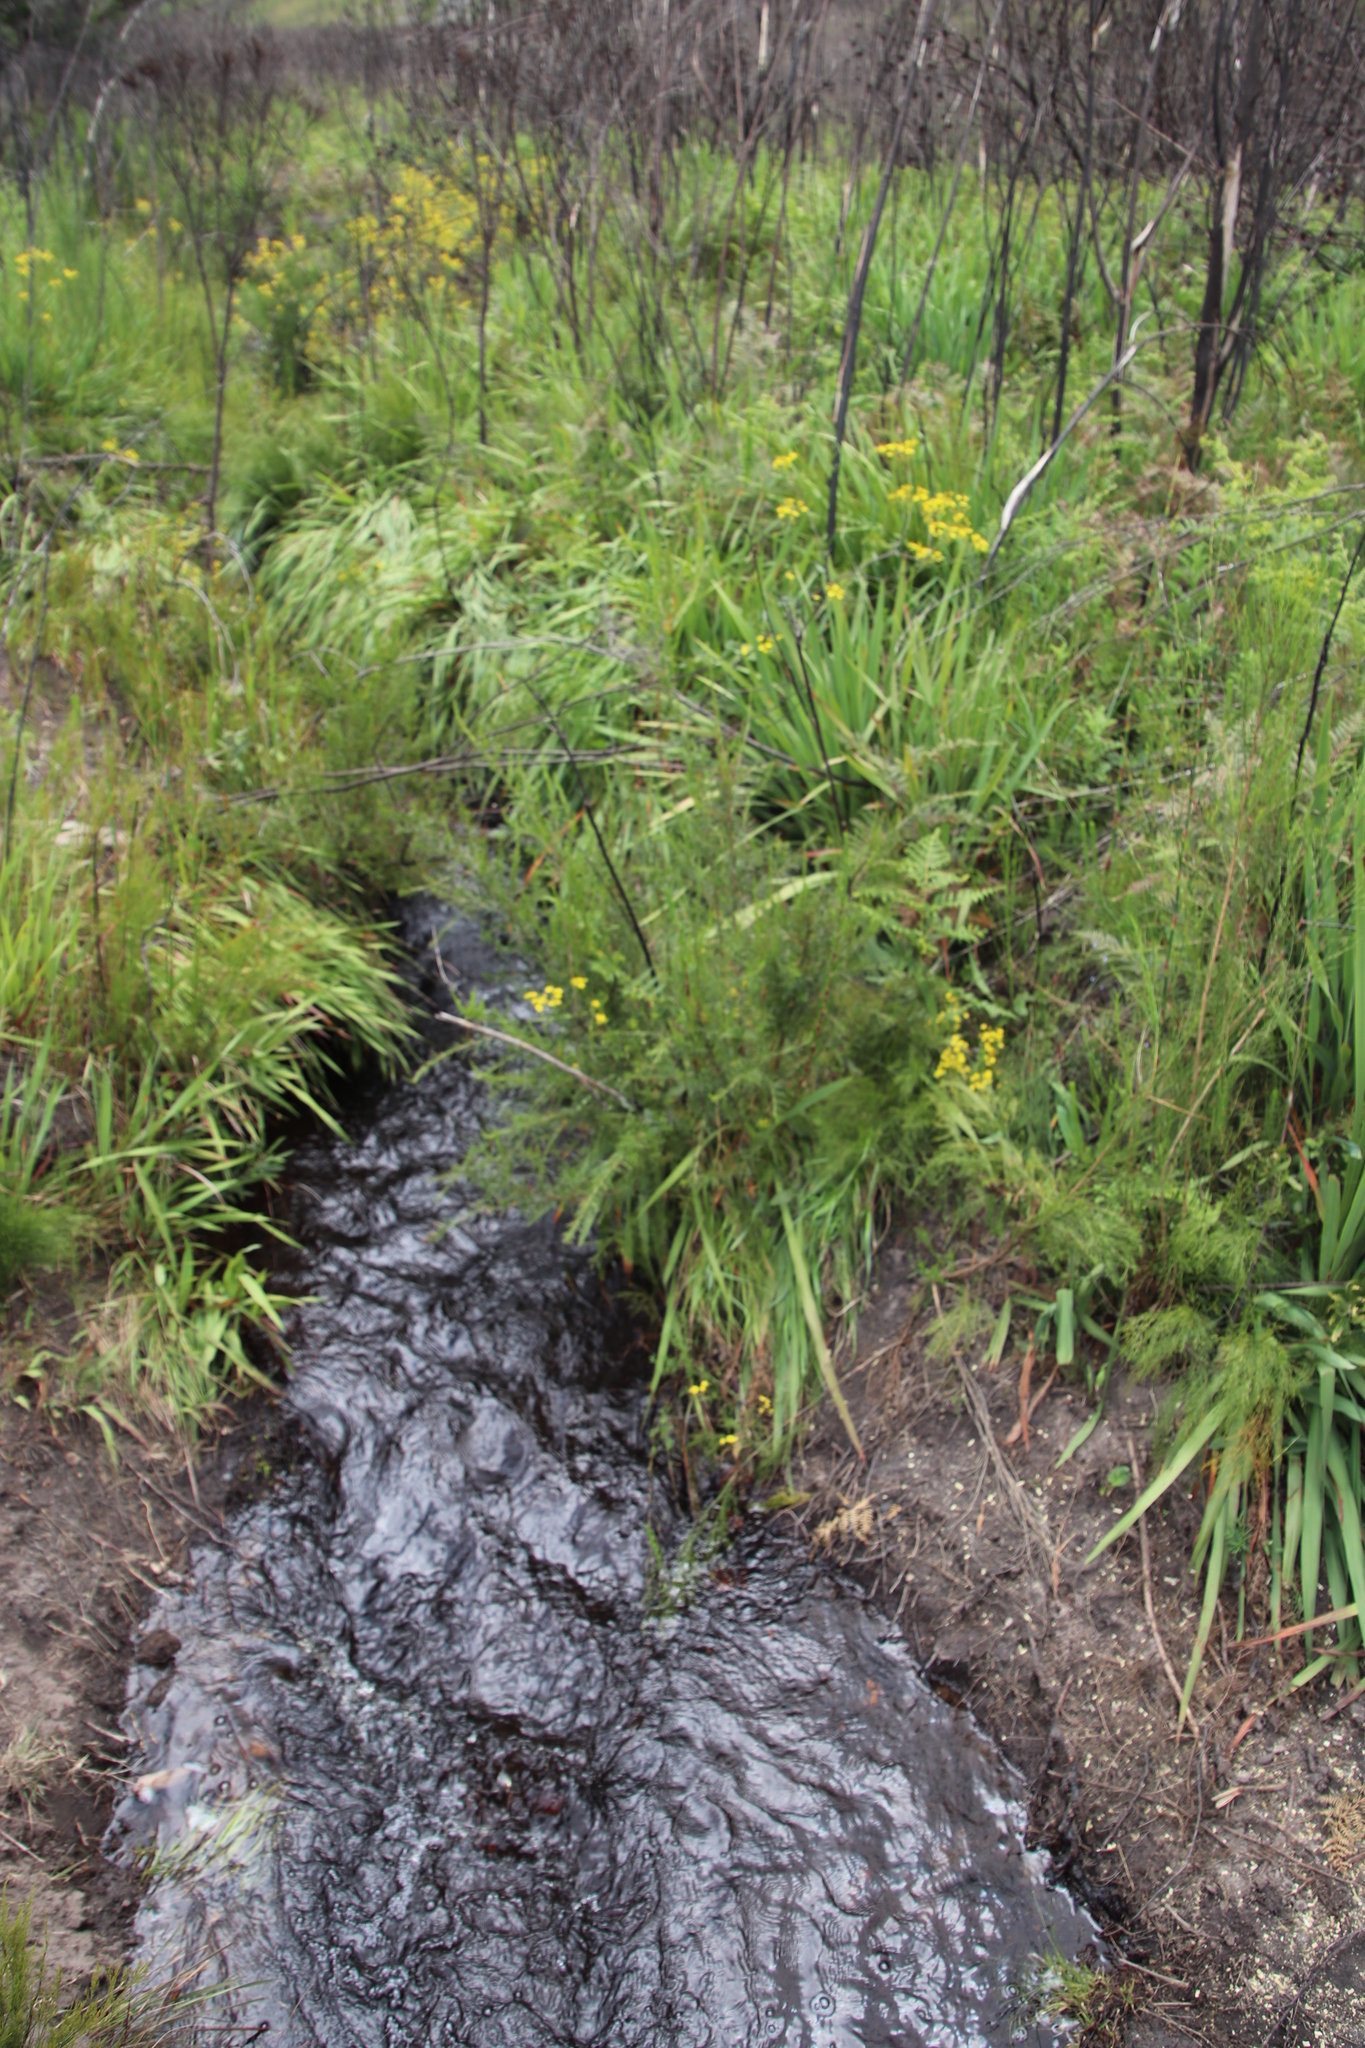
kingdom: Plantae
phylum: Tracheophyta
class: Magnoliopsida
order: Rosales
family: Rosaceae
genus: Cliffortia
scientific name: Cliffortia strobilifera
